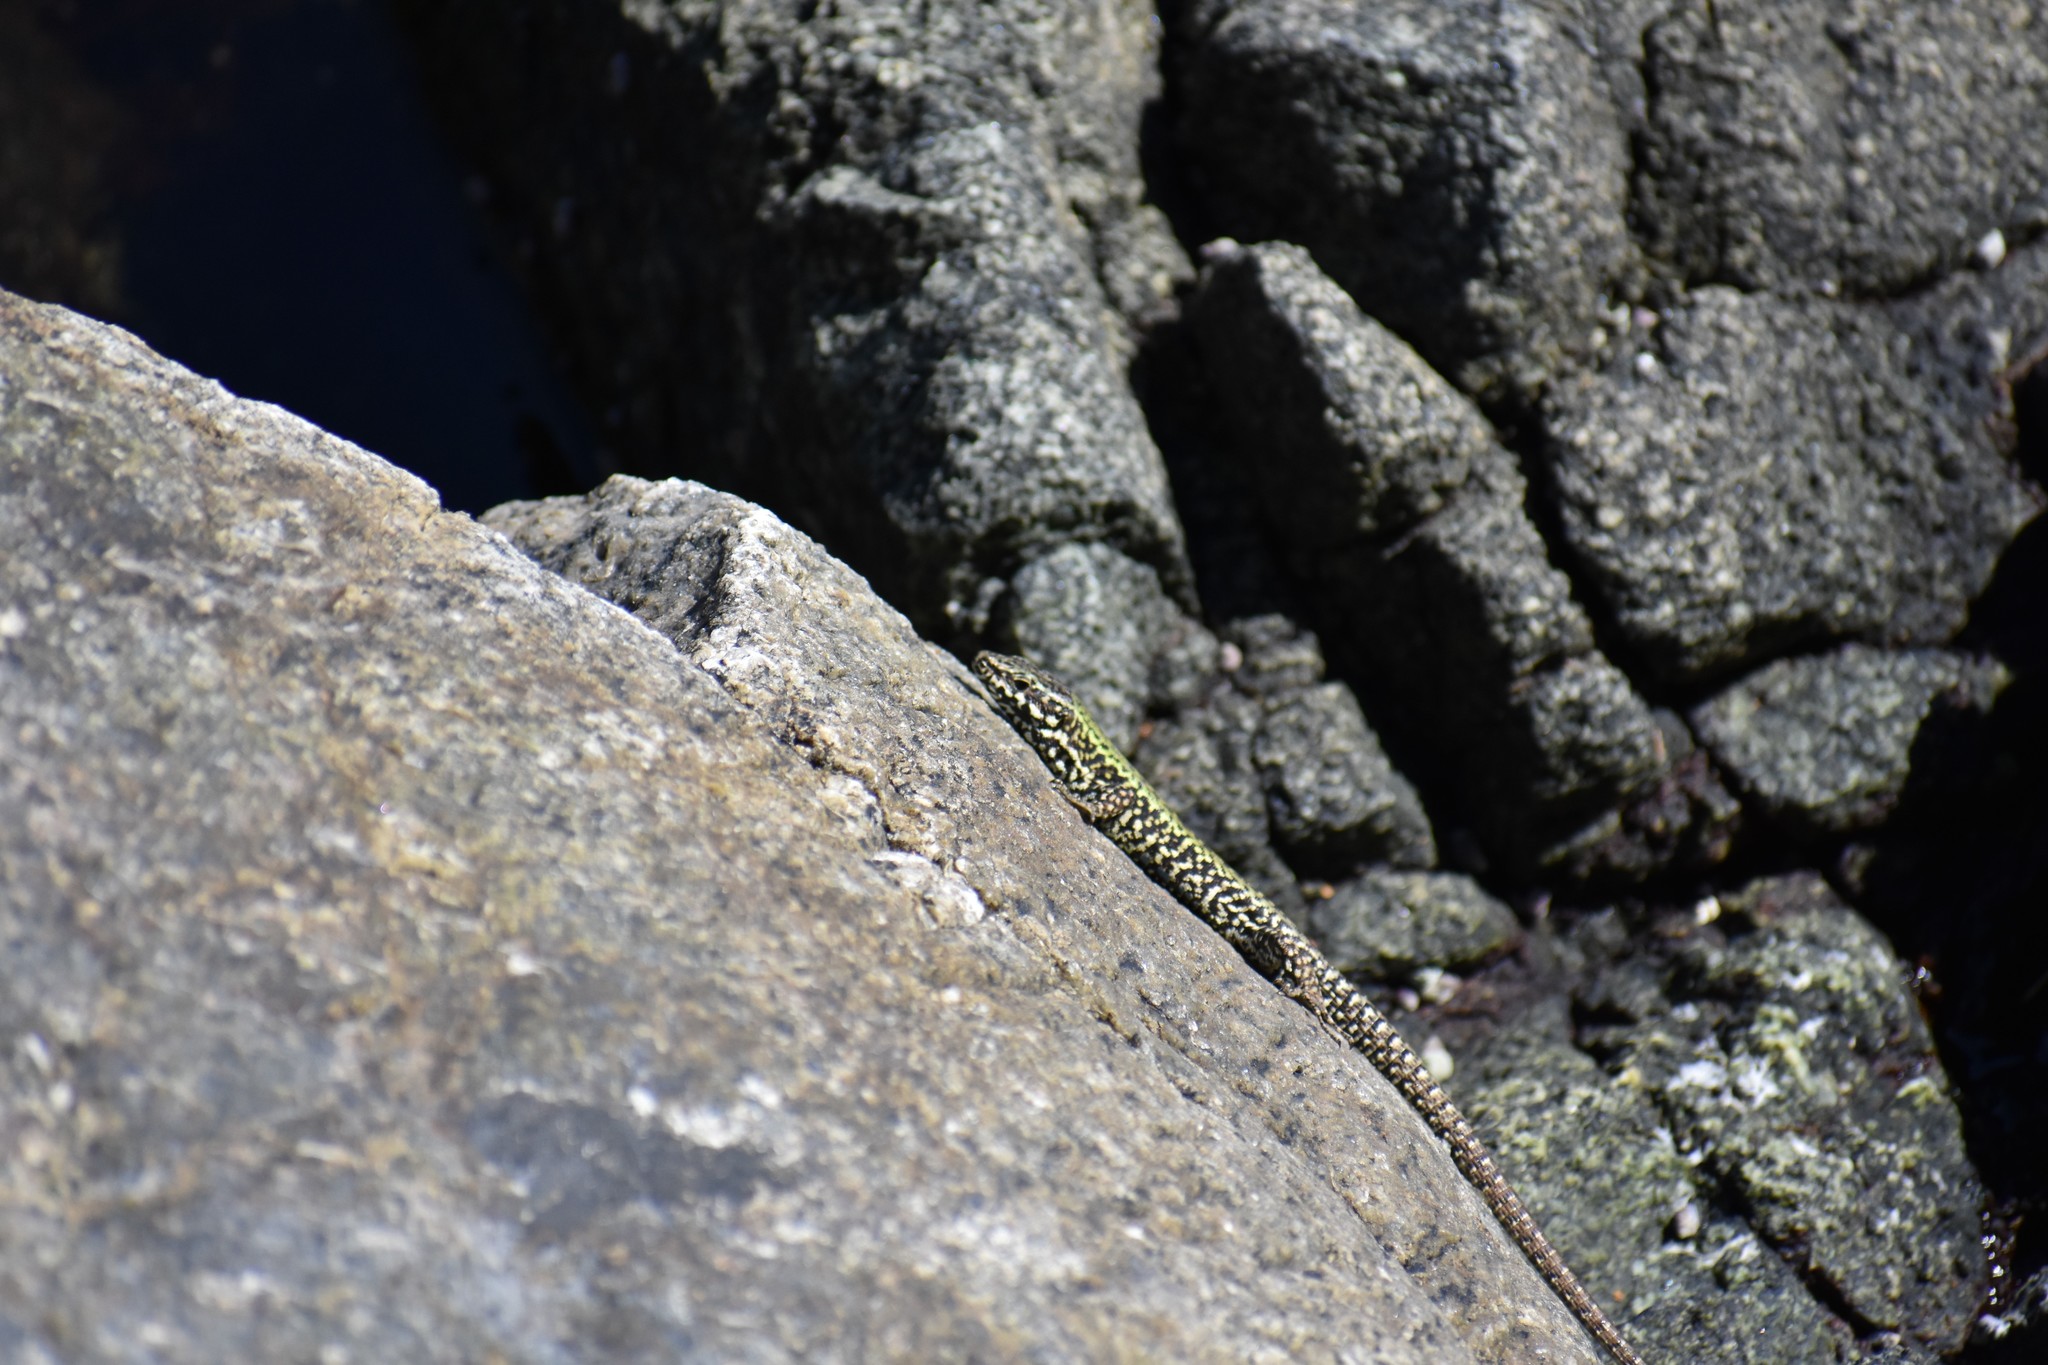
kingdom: Animalia
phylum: Chordata
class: Squamata
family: Lacertidae
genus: Podarcis
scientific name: Podarcis muralis
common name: Common wall lizard
